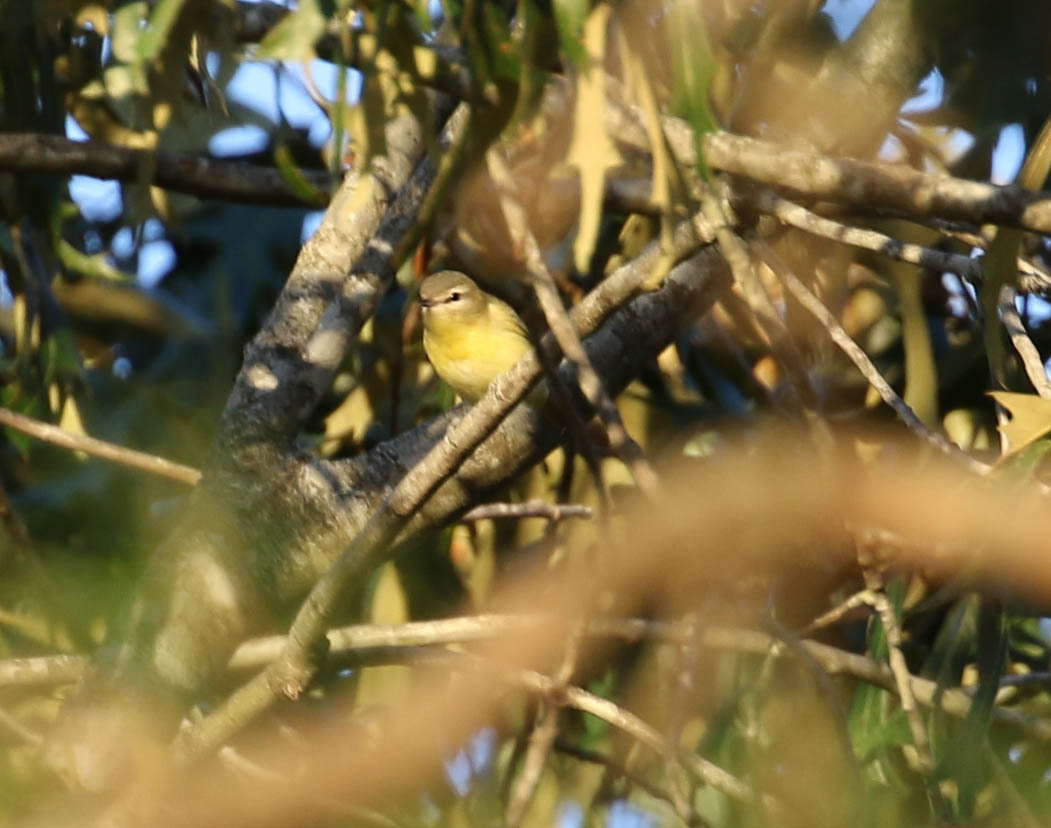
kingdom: Animalia
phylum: Chordata
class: Aves
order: Passeriformes
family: Vireonidae
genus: Vireo
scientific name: Vireo philadelphicus
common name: Philadelphia vireo
